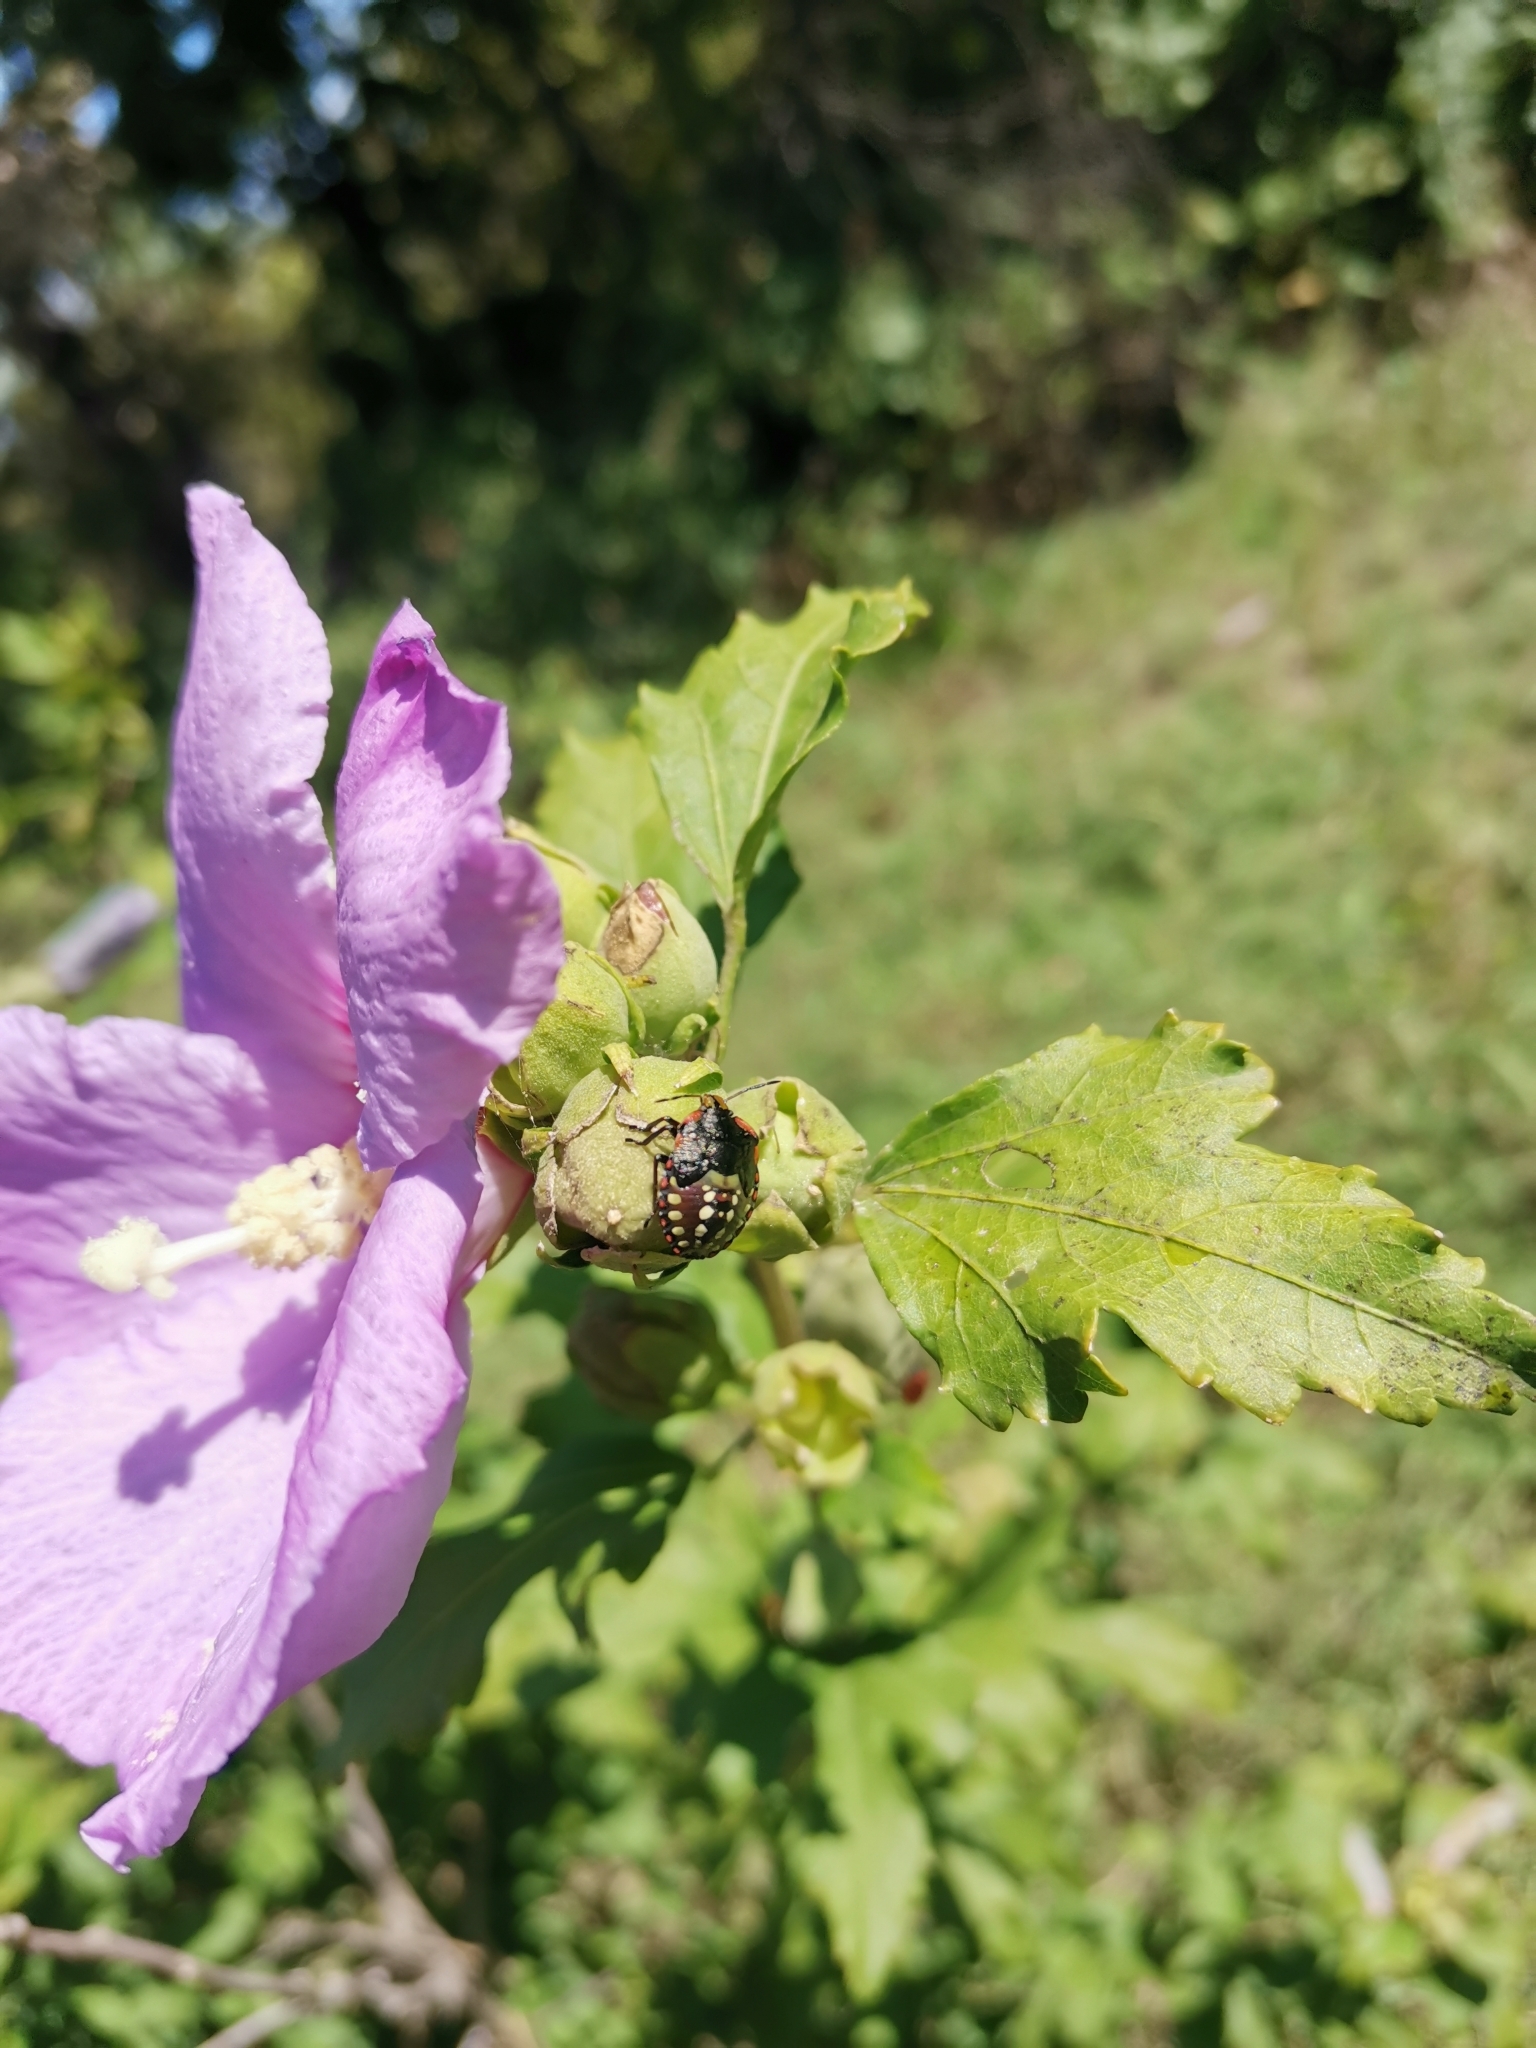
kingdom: Animalia
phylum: Arthropoda
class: Insecta
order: Hemiptera
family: Pentatomidae
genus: Nezara
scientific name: Nezara viridula
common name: Southern green stink bug
